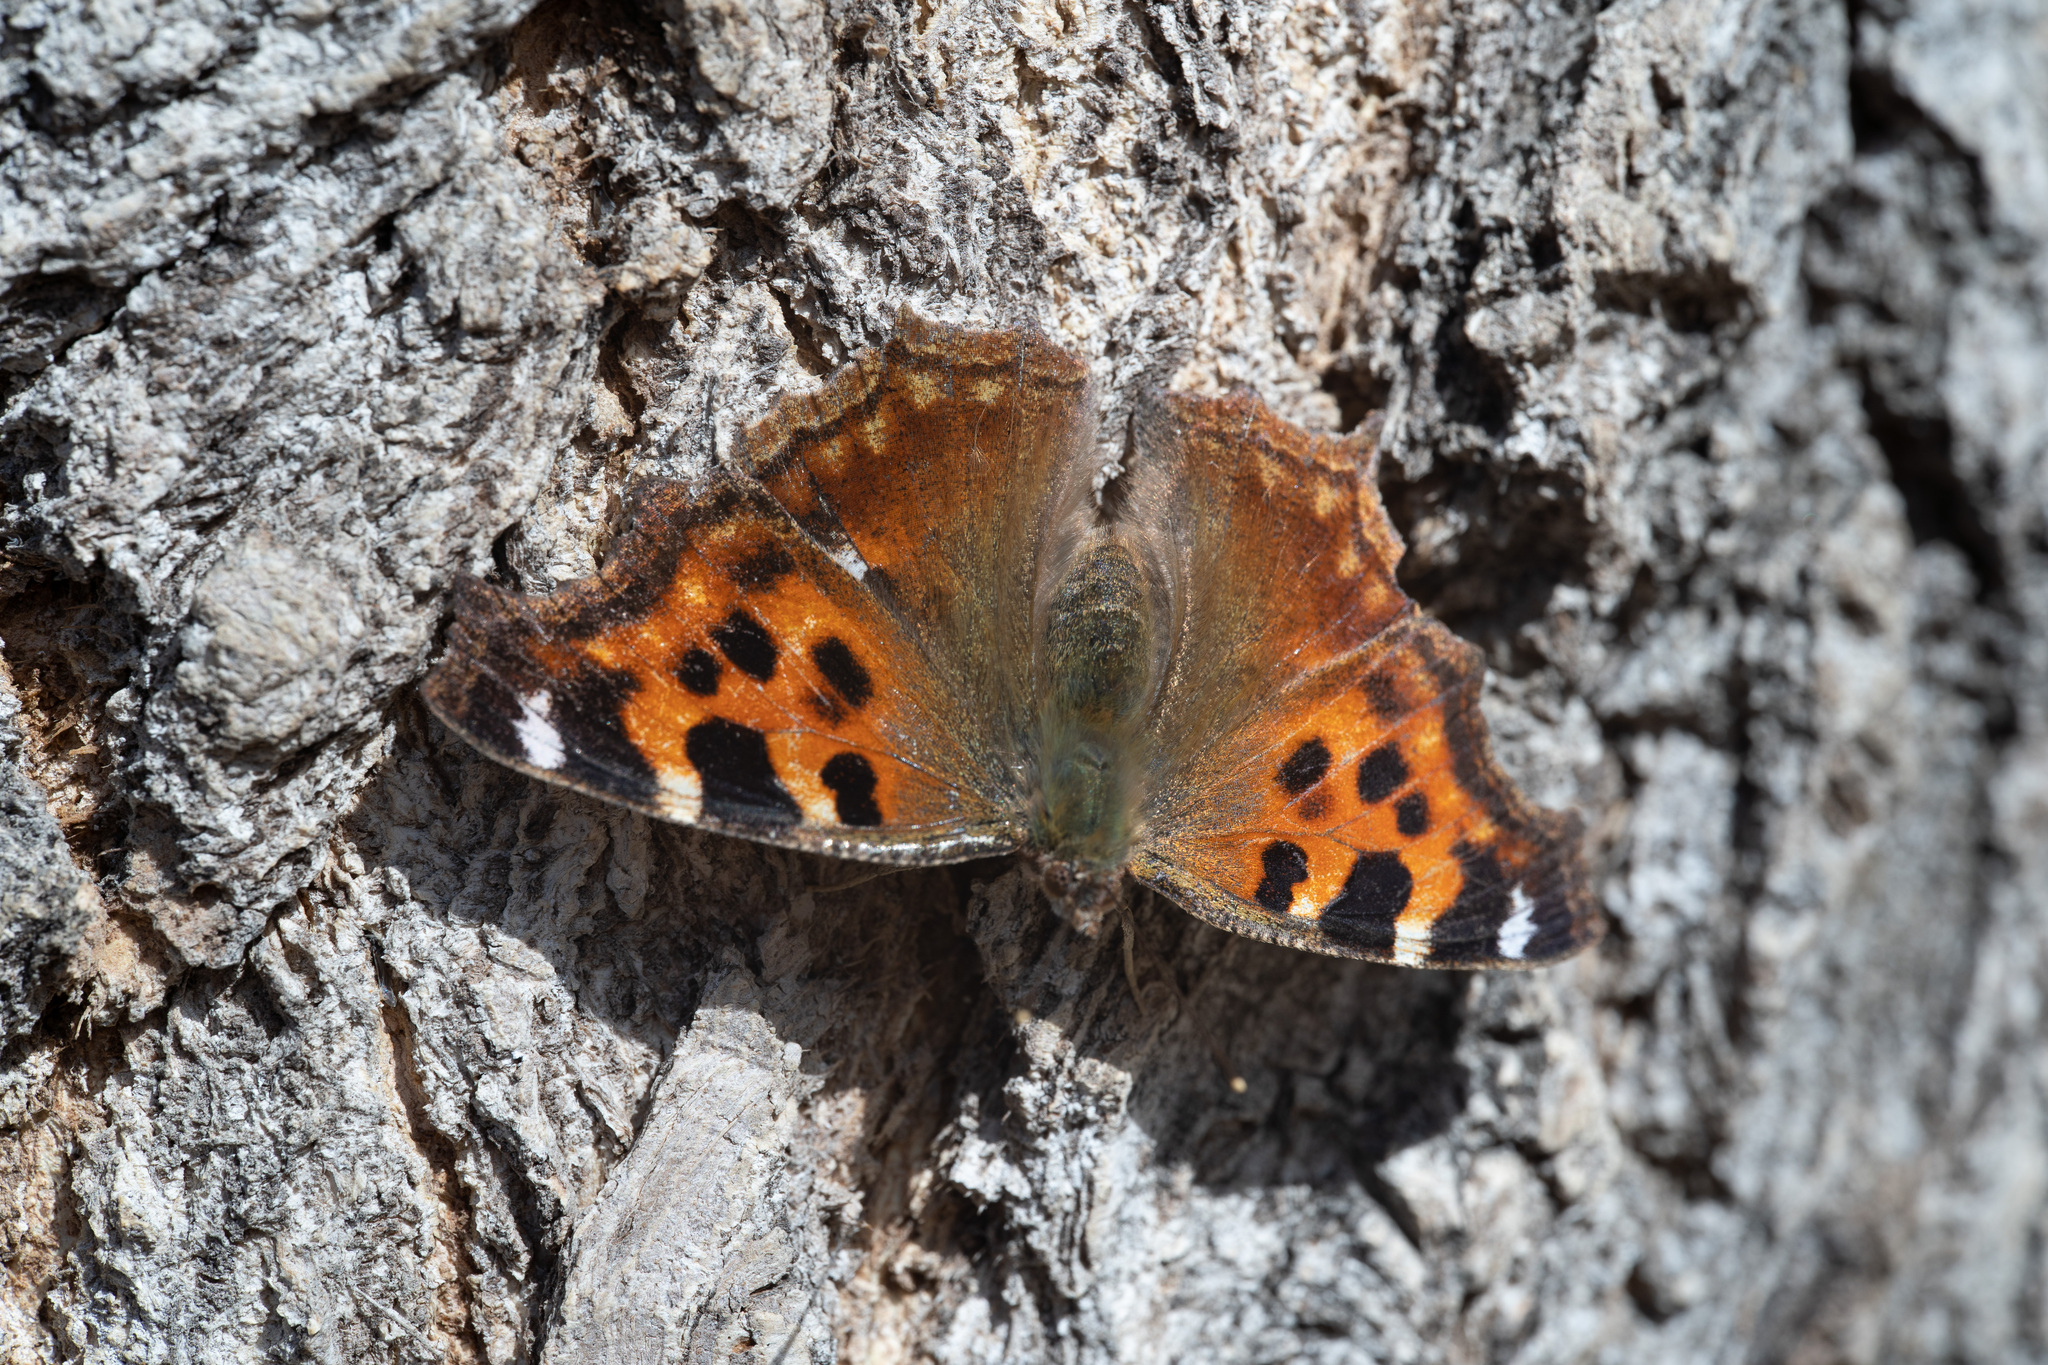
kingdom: Animalia
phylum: Arthropoda
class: Insecta
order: Lepidoptera
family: Nymphalidae
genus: Polygonia
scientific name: Polygonia vaualbum
